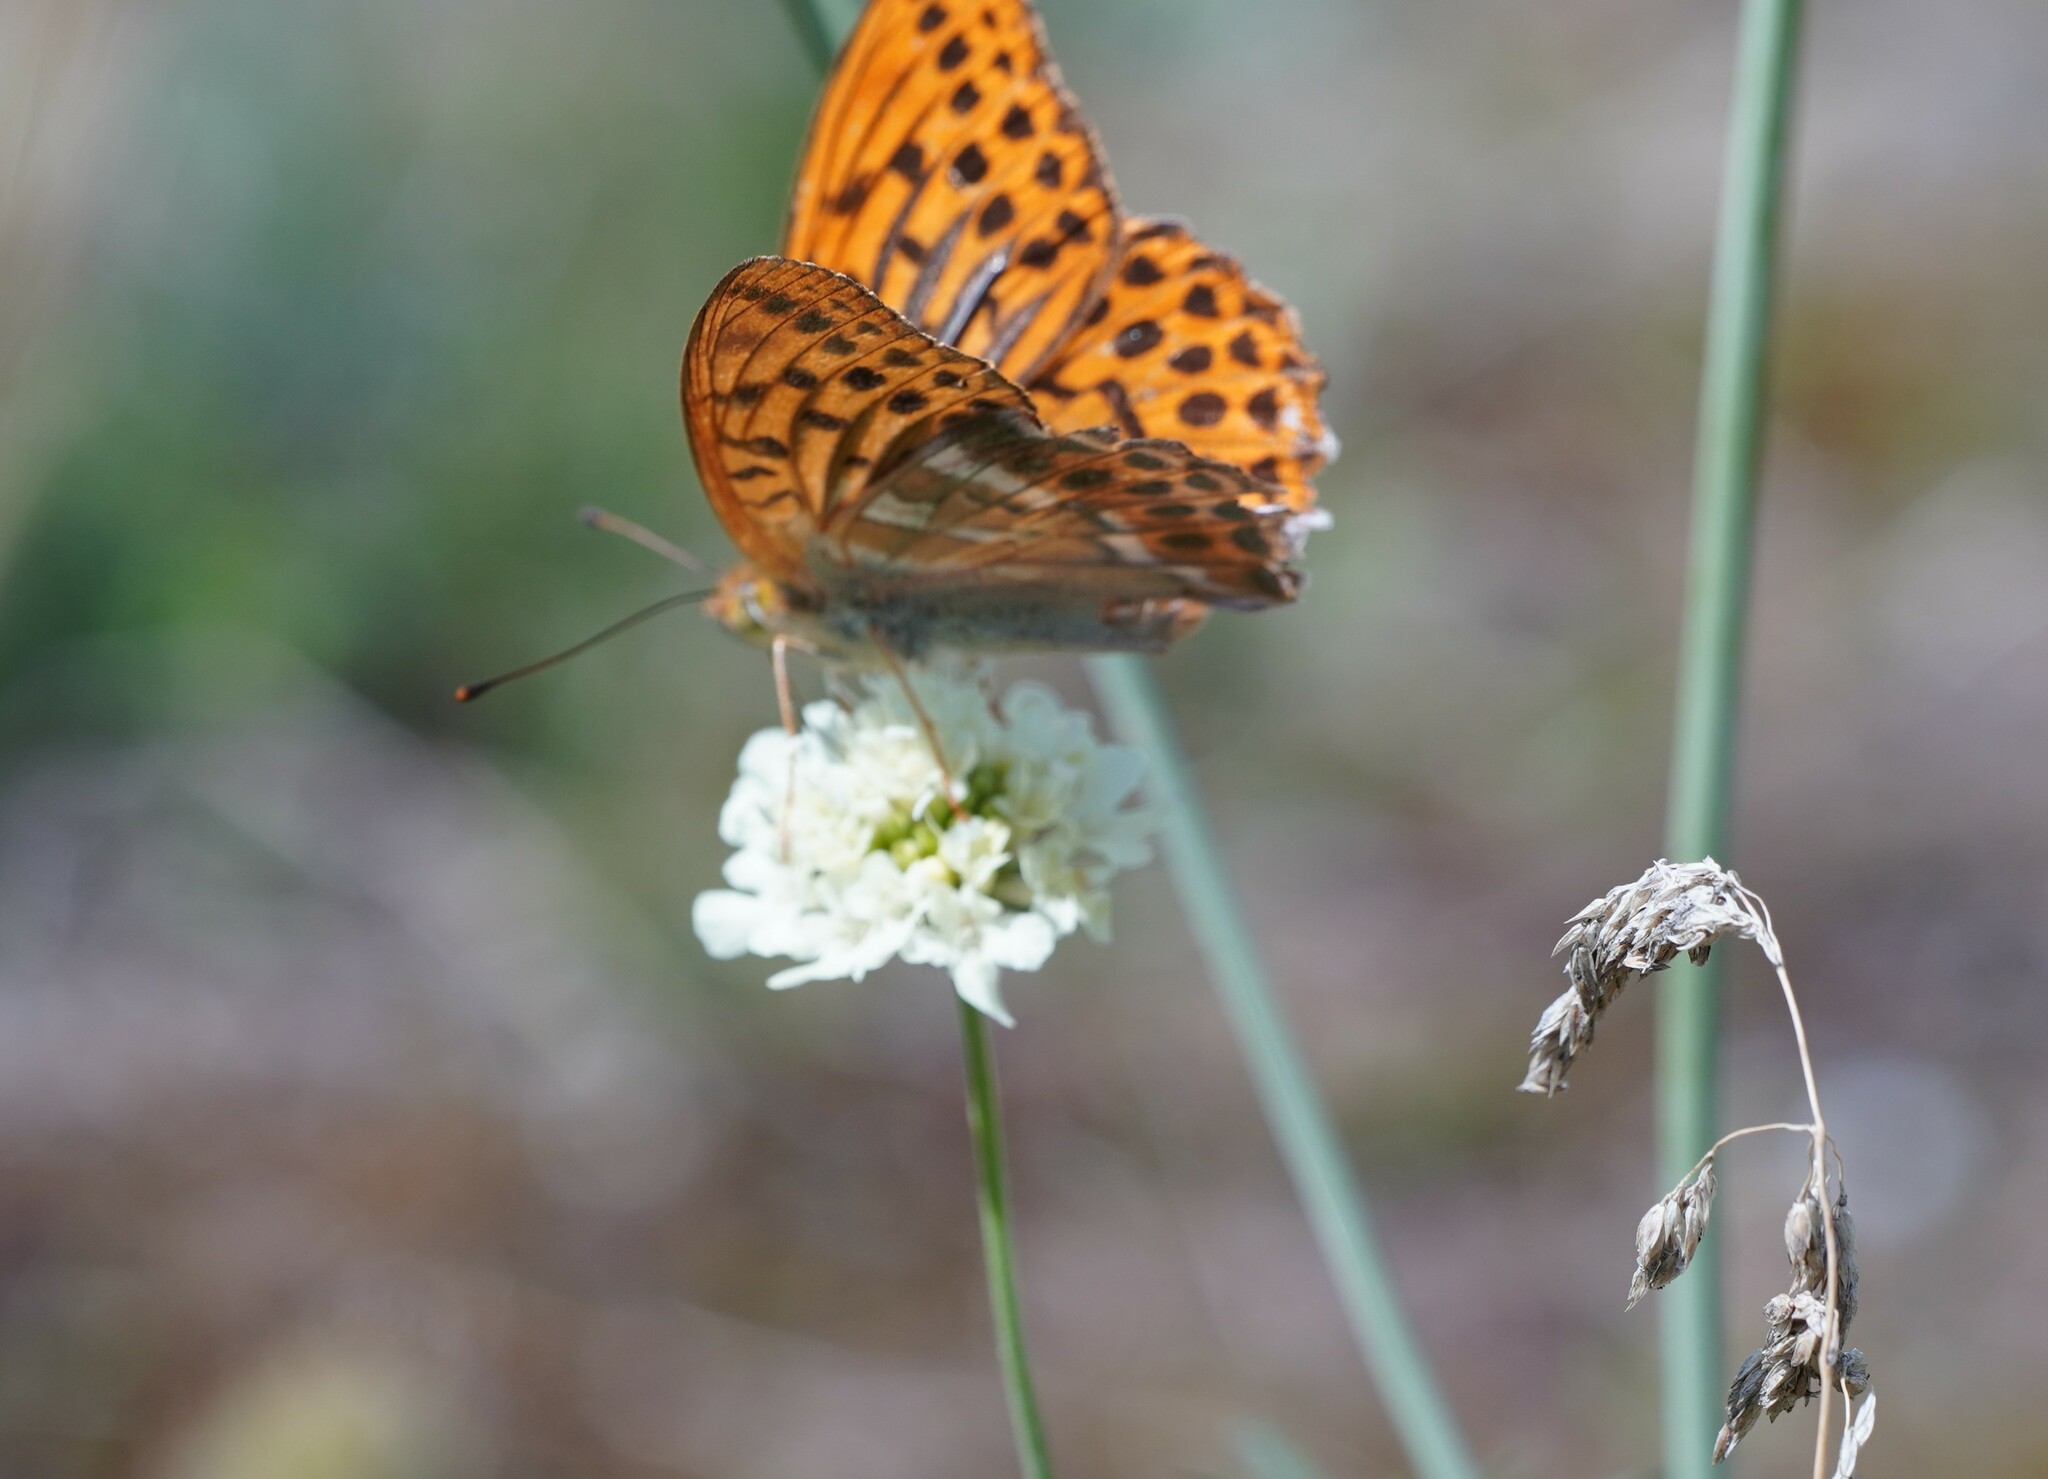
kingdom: Animalia
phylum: Arthropoda
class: Insecta
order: Lepidoptera
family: Nymphalidae
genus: Argynnis
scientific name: Argynnis paphia
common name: Silver-washed fritillary
